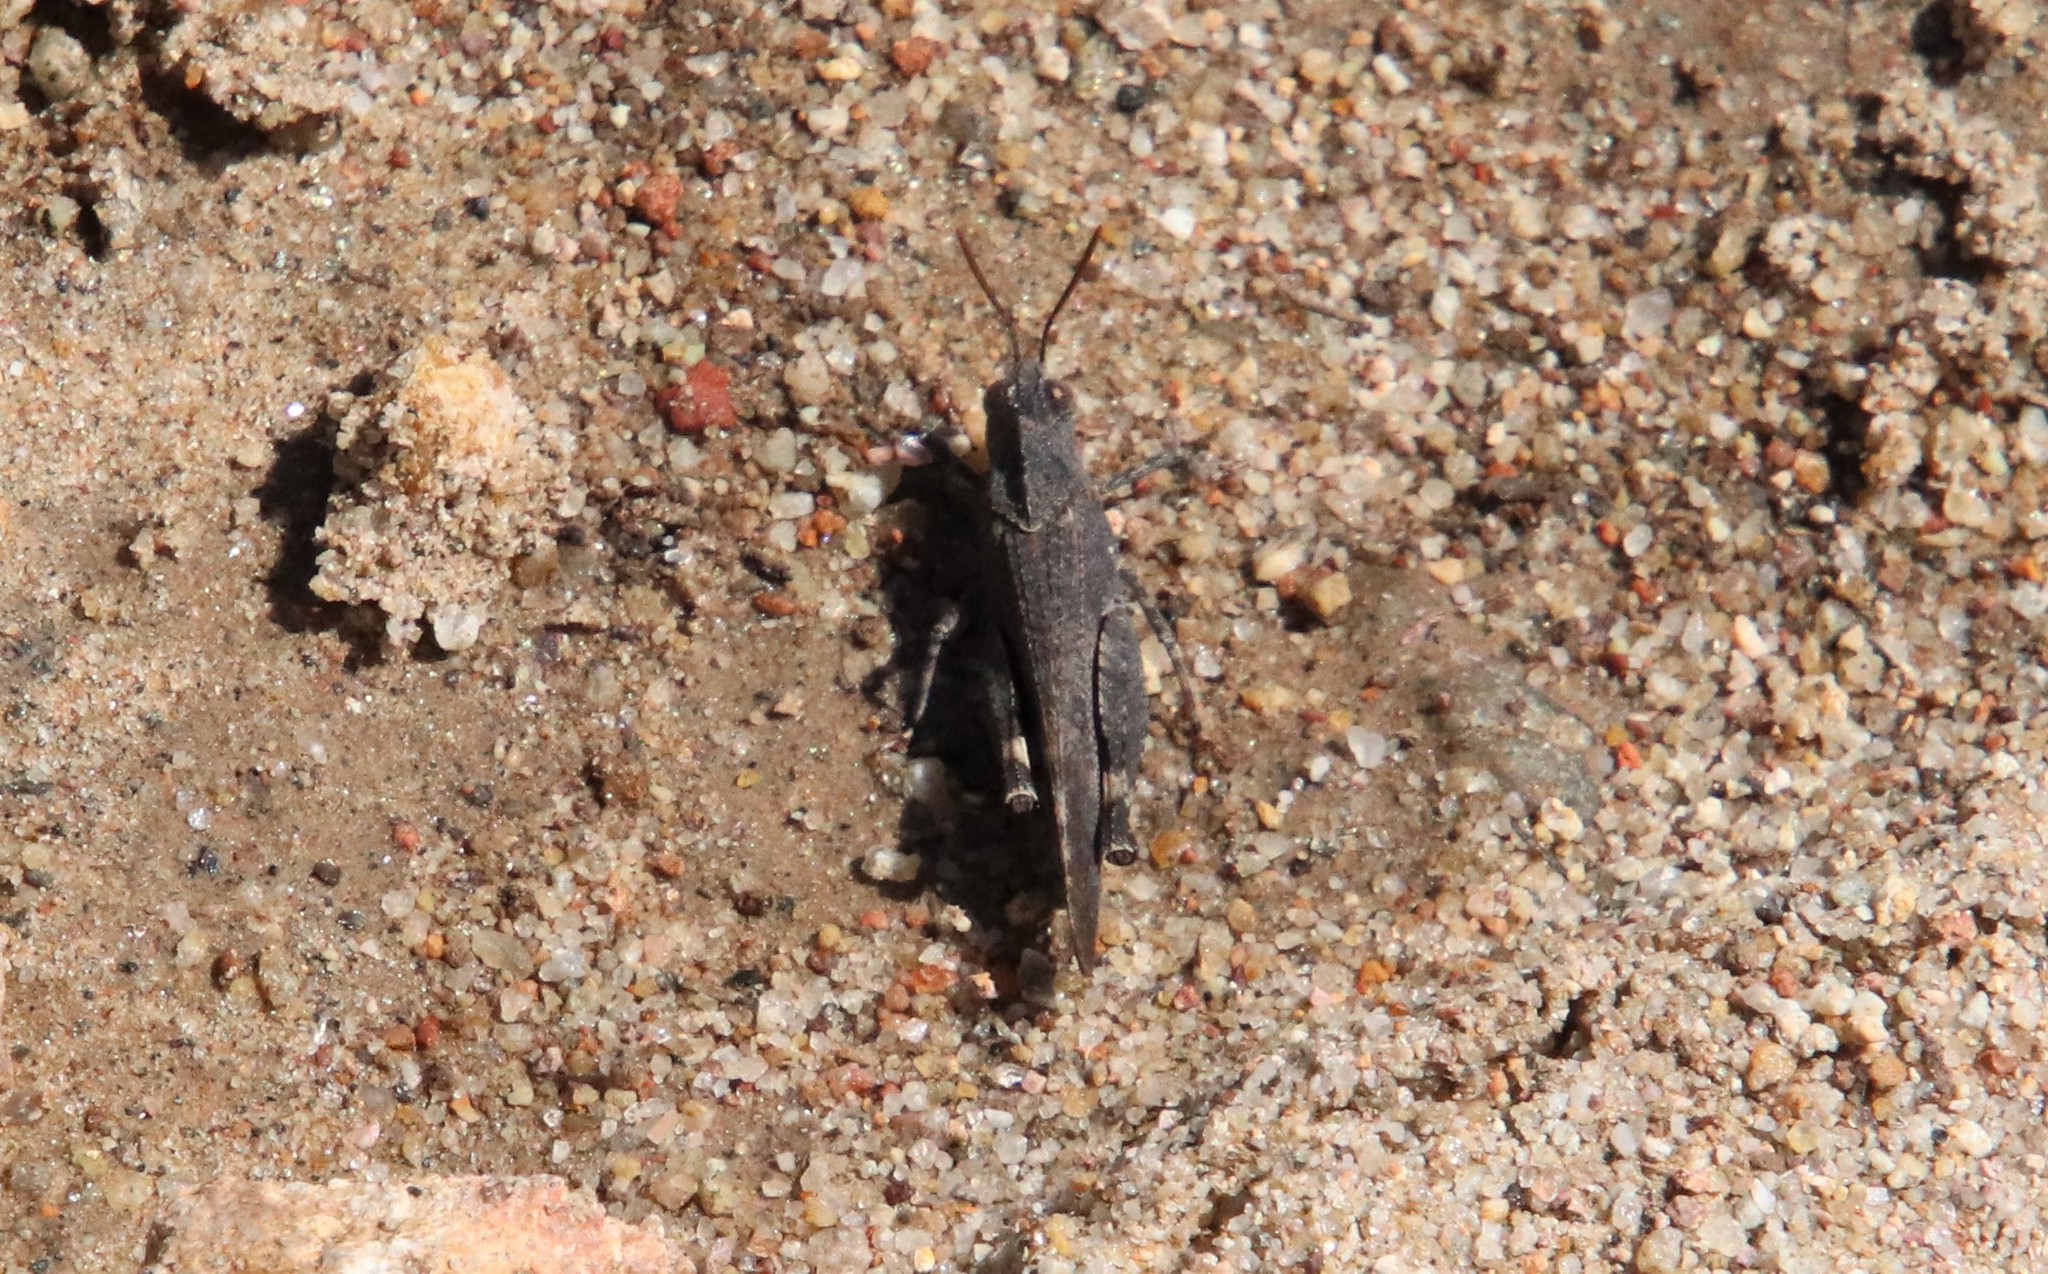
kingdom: Animalia
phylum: Arthropoda
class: Insecta
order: Orthoptera
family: Acrididae
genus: Lactista
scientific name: Lactista gibbosus
